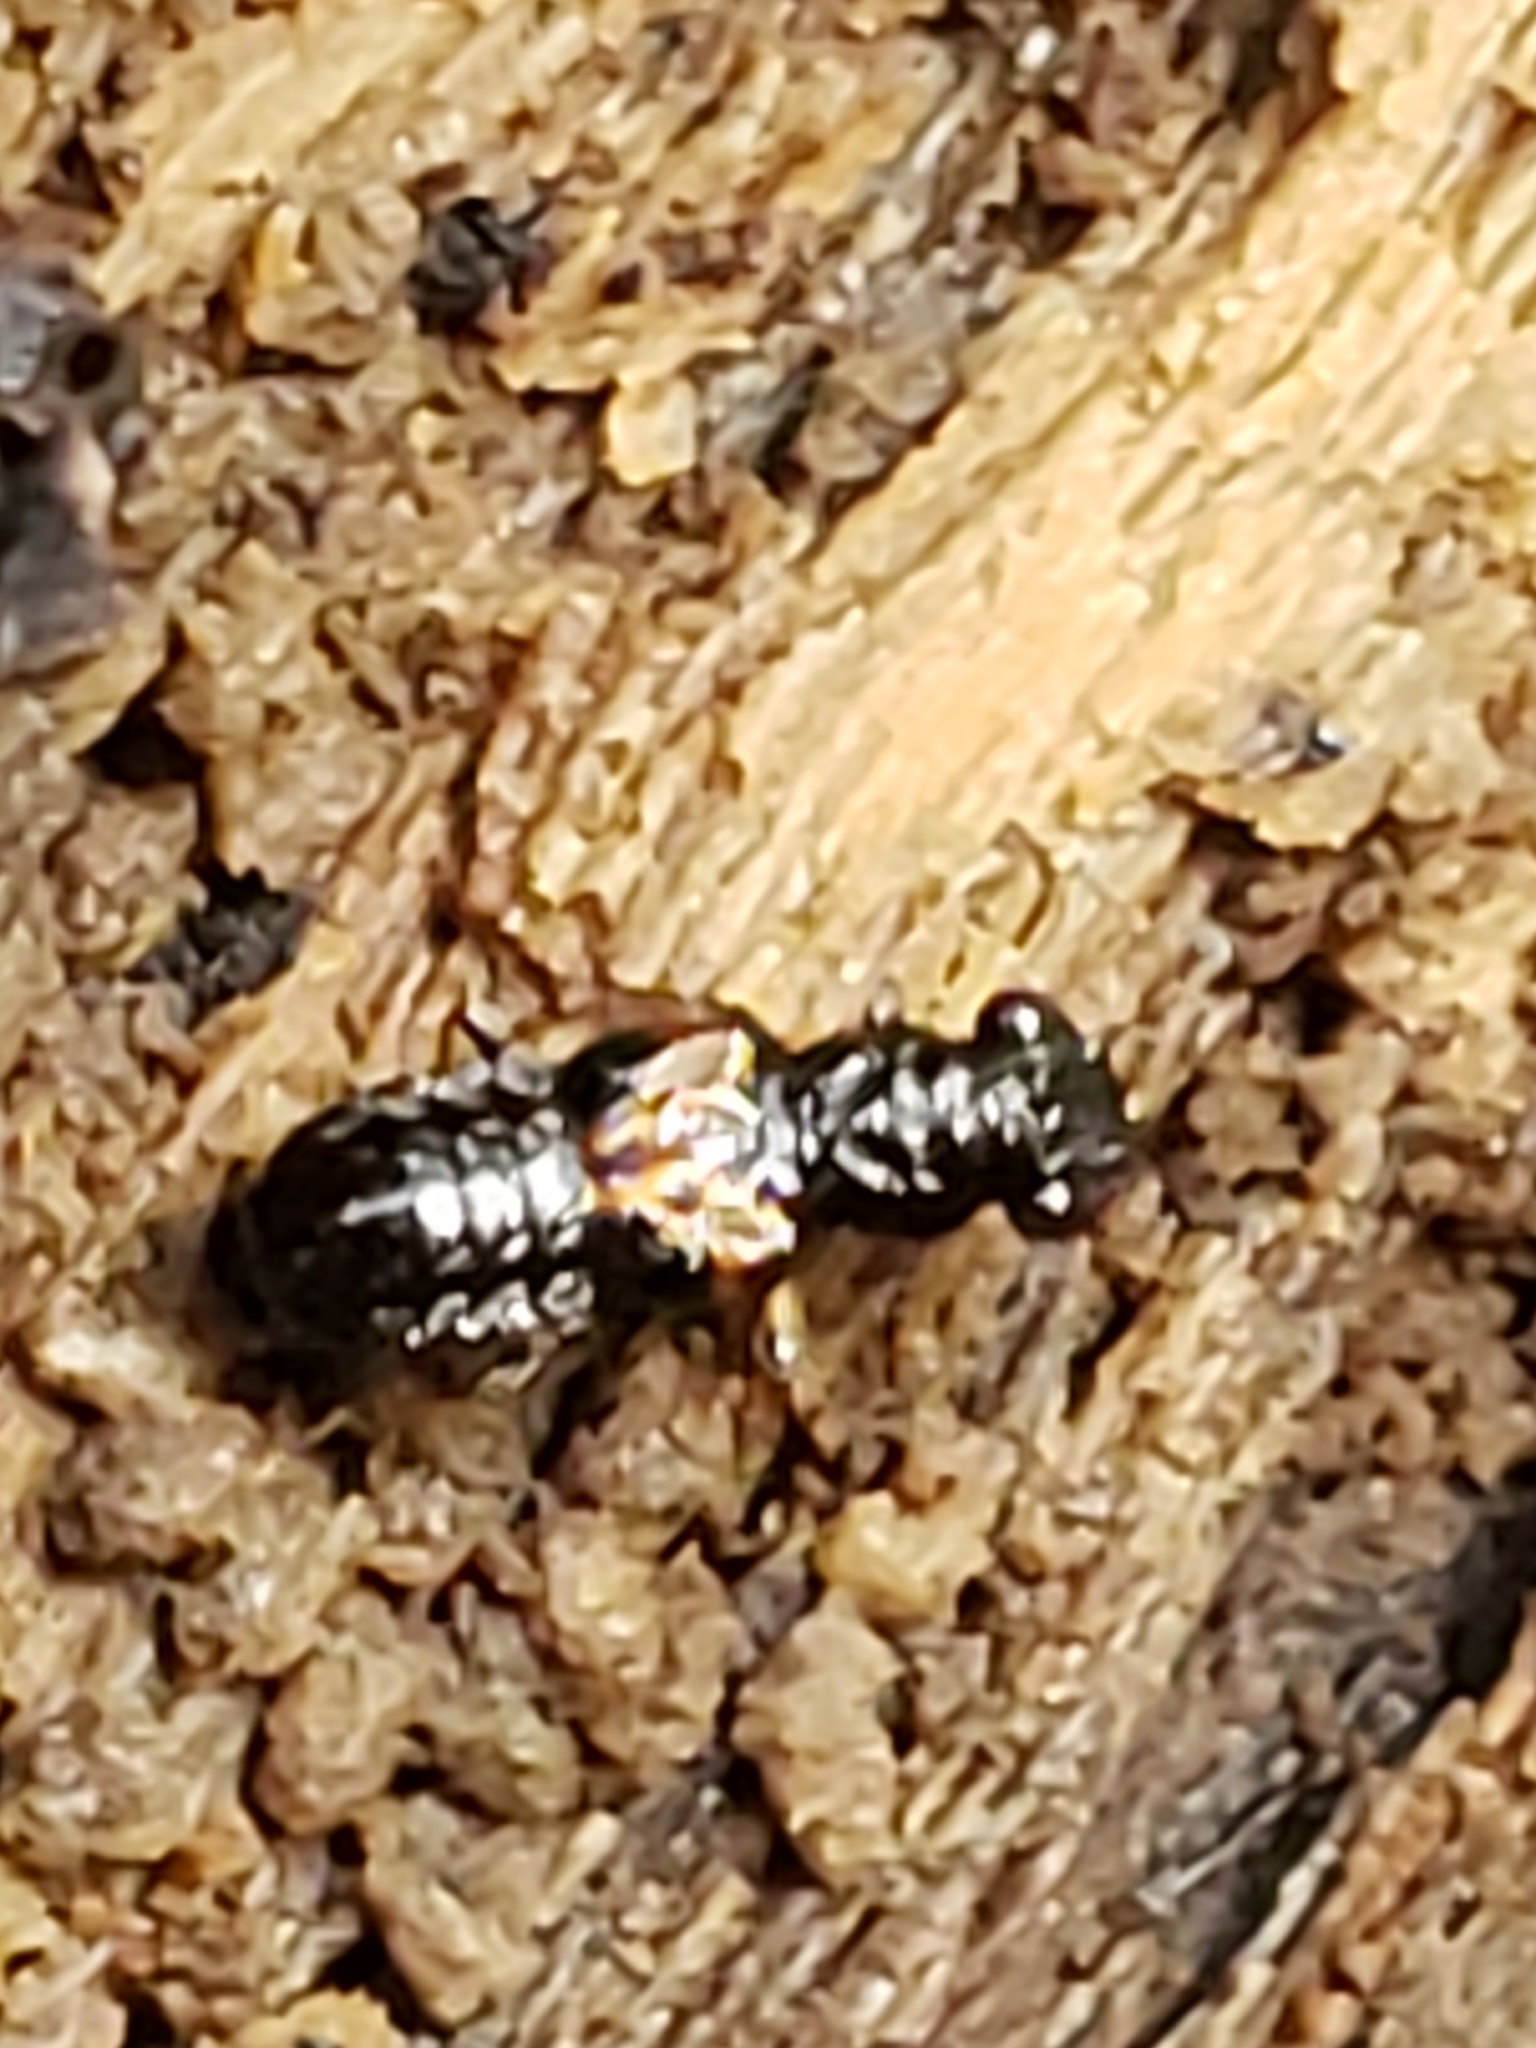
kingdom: Animalia
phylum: Arthropoda
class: Insecta
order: Coleoptera
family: Staphylinidae
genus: Megalopinus
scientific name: Megalopinus caelatus
